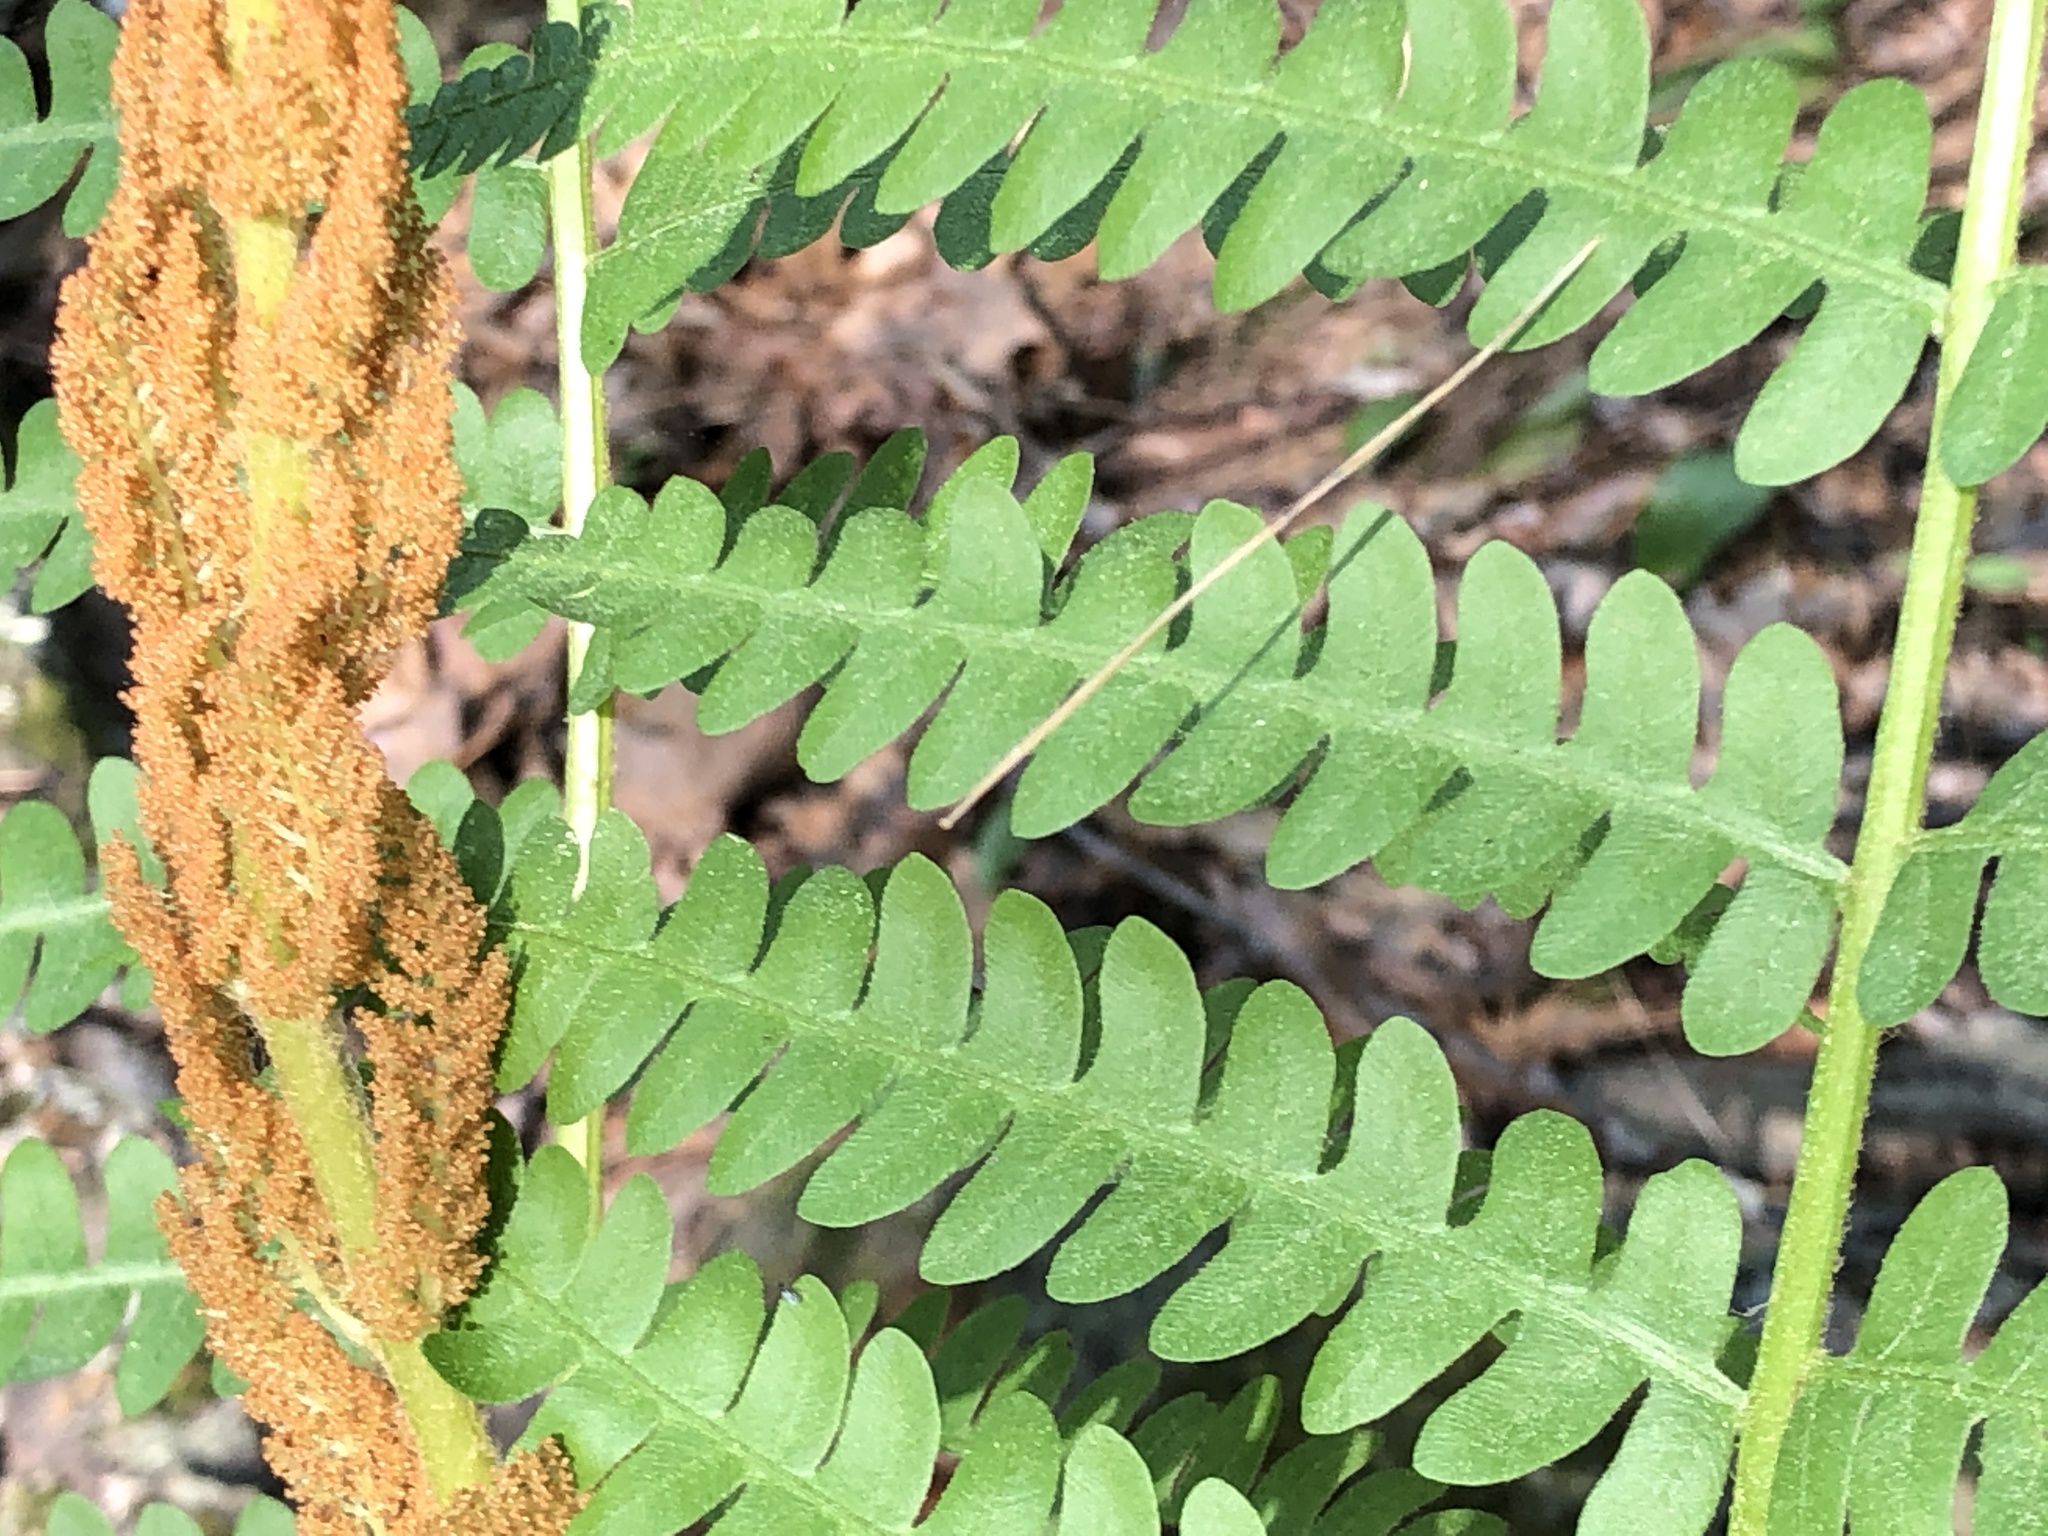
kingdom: Plantae
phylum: Tracheophyta
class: Polypodiopsida
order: Osmundales
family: Osmundaceae
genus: Osmundastrum
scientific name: Osmundastrum cinnamomeum
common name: Cinnamon fern
